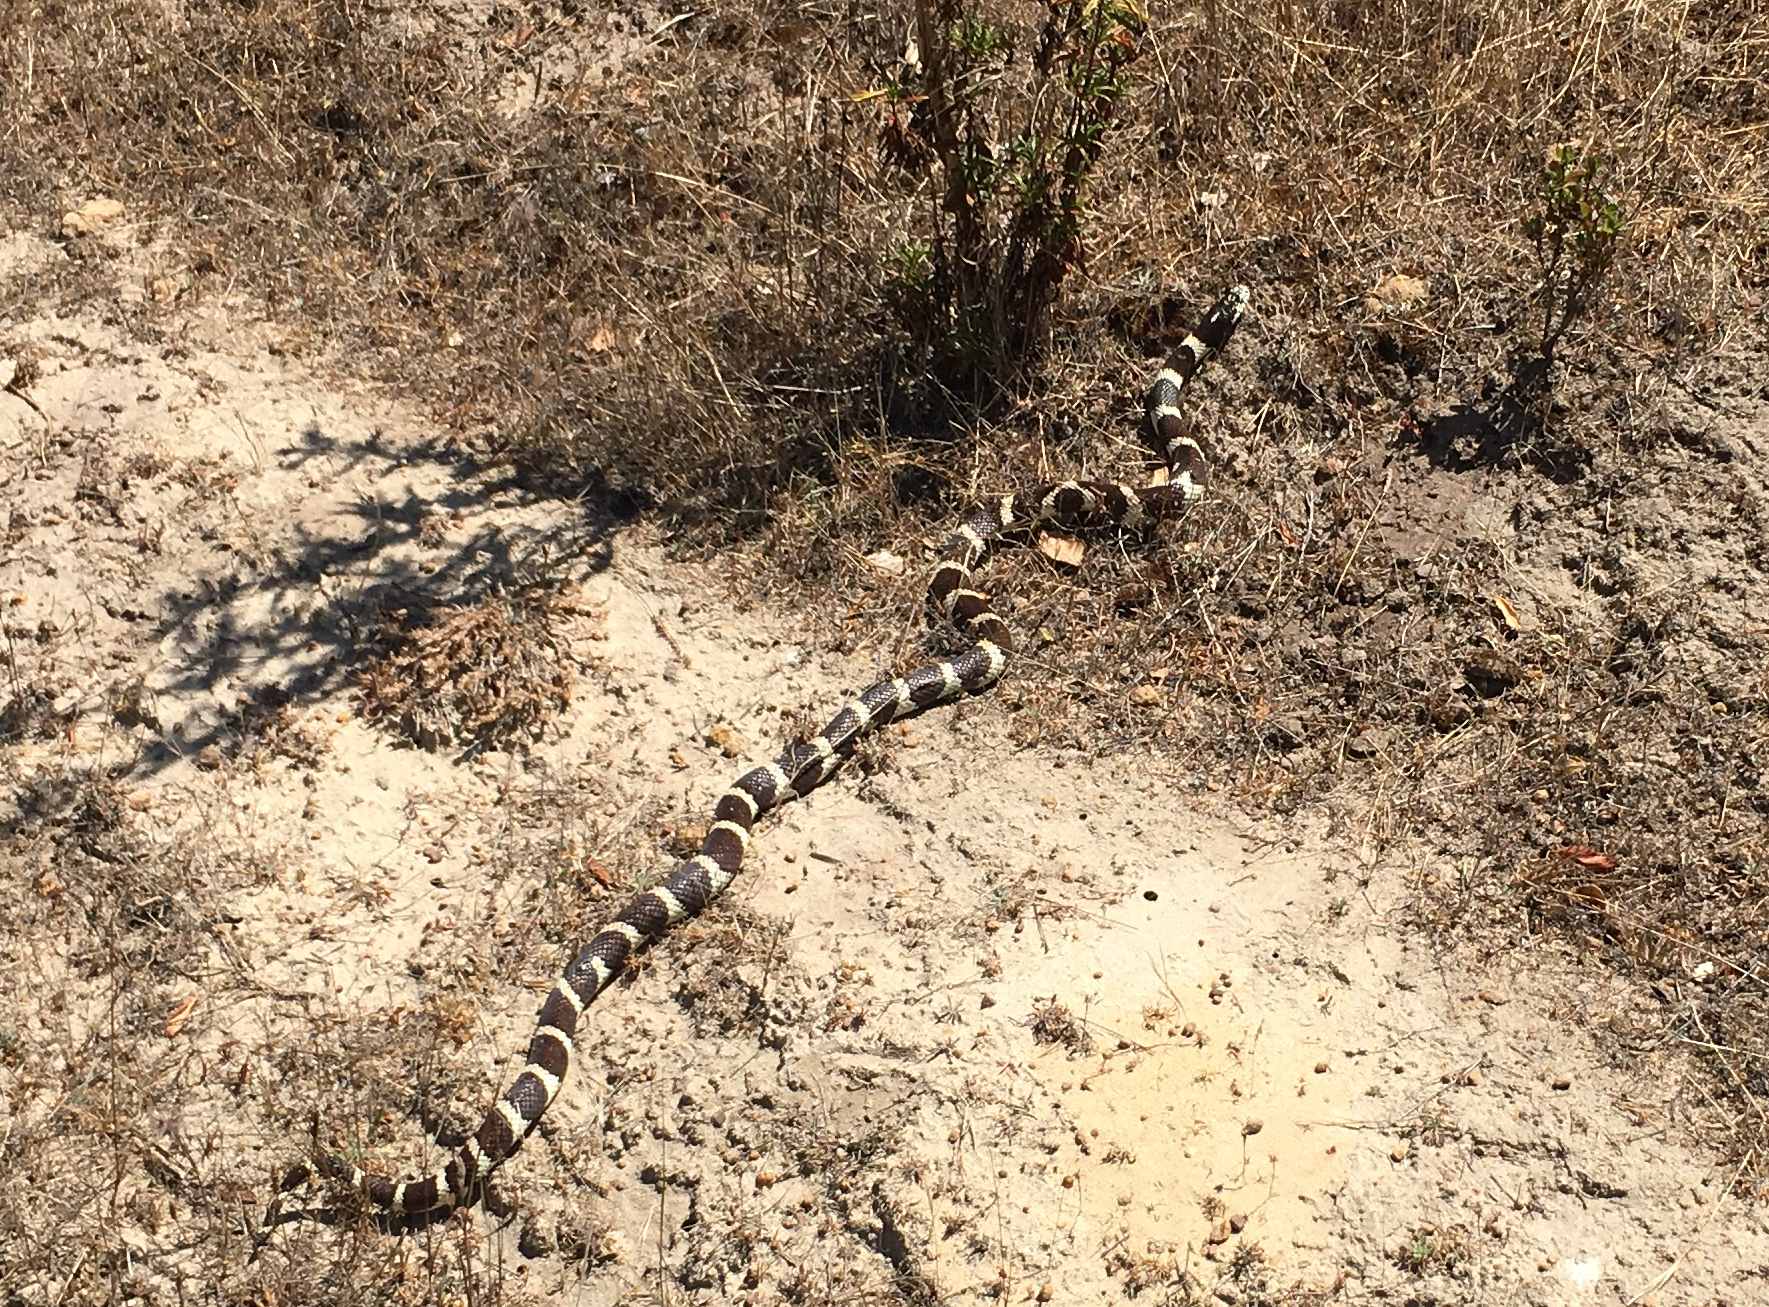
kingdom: Animalia
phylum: Chordata
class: Squamata
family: Colubridae
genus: Lampropeltis
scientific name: Lampropeltis californiae
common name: California kingsnake
